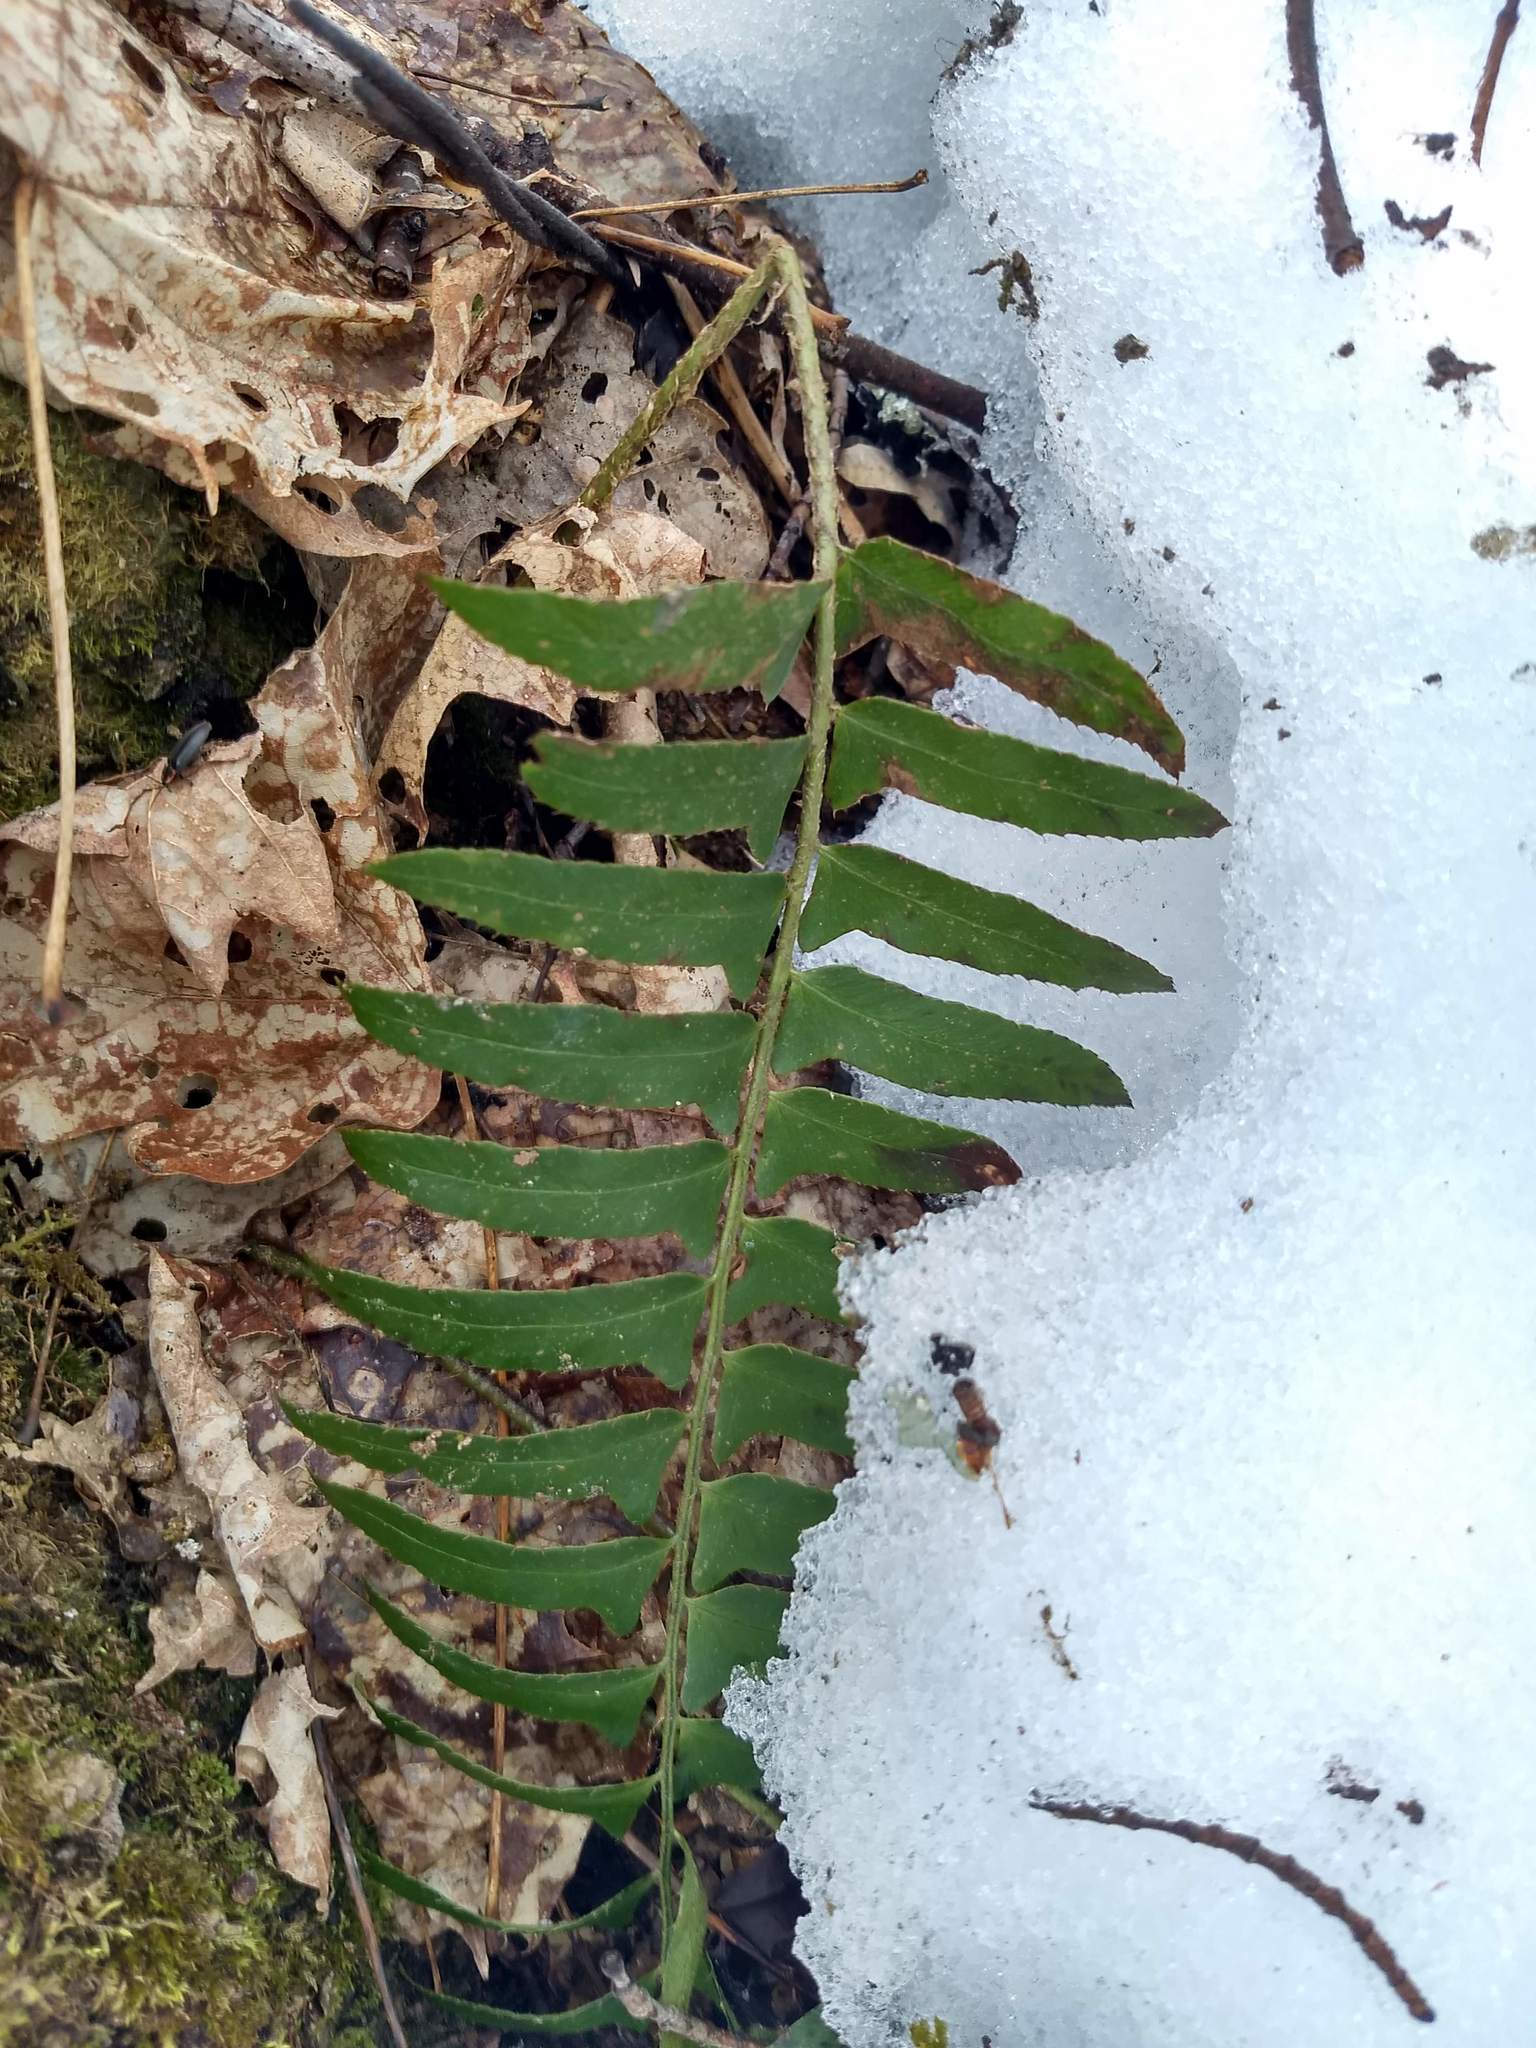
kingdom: Plantae
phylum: Tracheophyta
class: Polypodiopsida
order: Polypodiales
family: Dryopteridaceae
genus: Polystichum
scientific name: Polystichum acrostichoides
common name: Christmas fern
